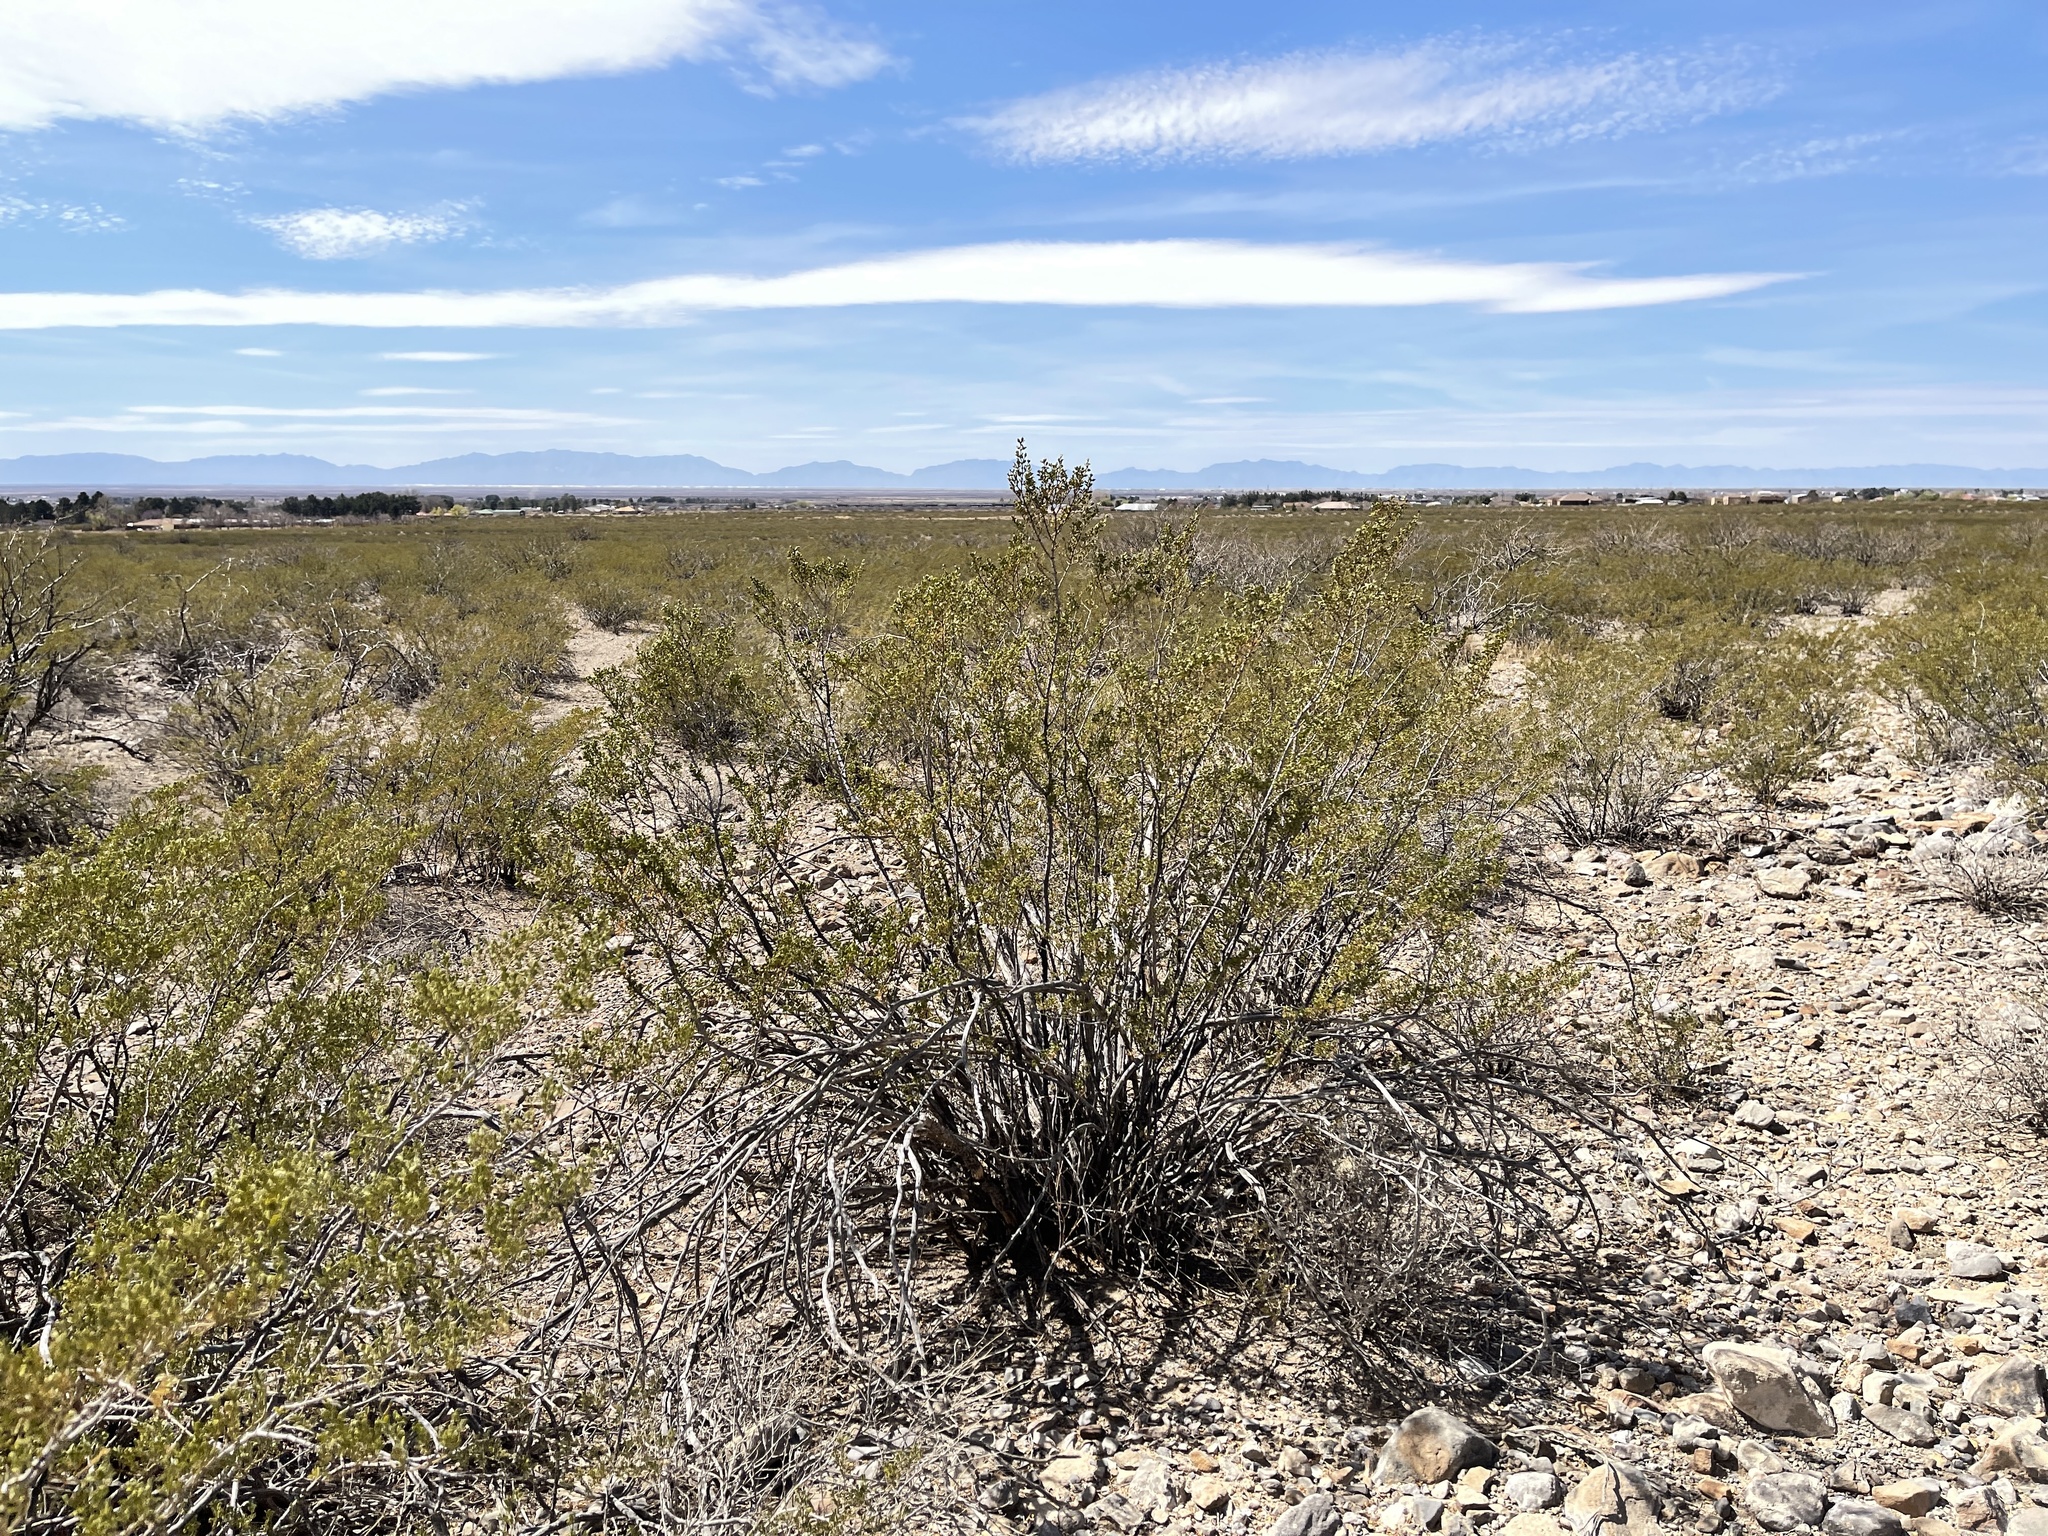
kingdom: Plantae
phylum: Tracheophyta
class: Magnoliopsida
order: Zygophyllales
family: Zygophyllaceae
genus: Larrea
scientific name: Larrea tridentata
